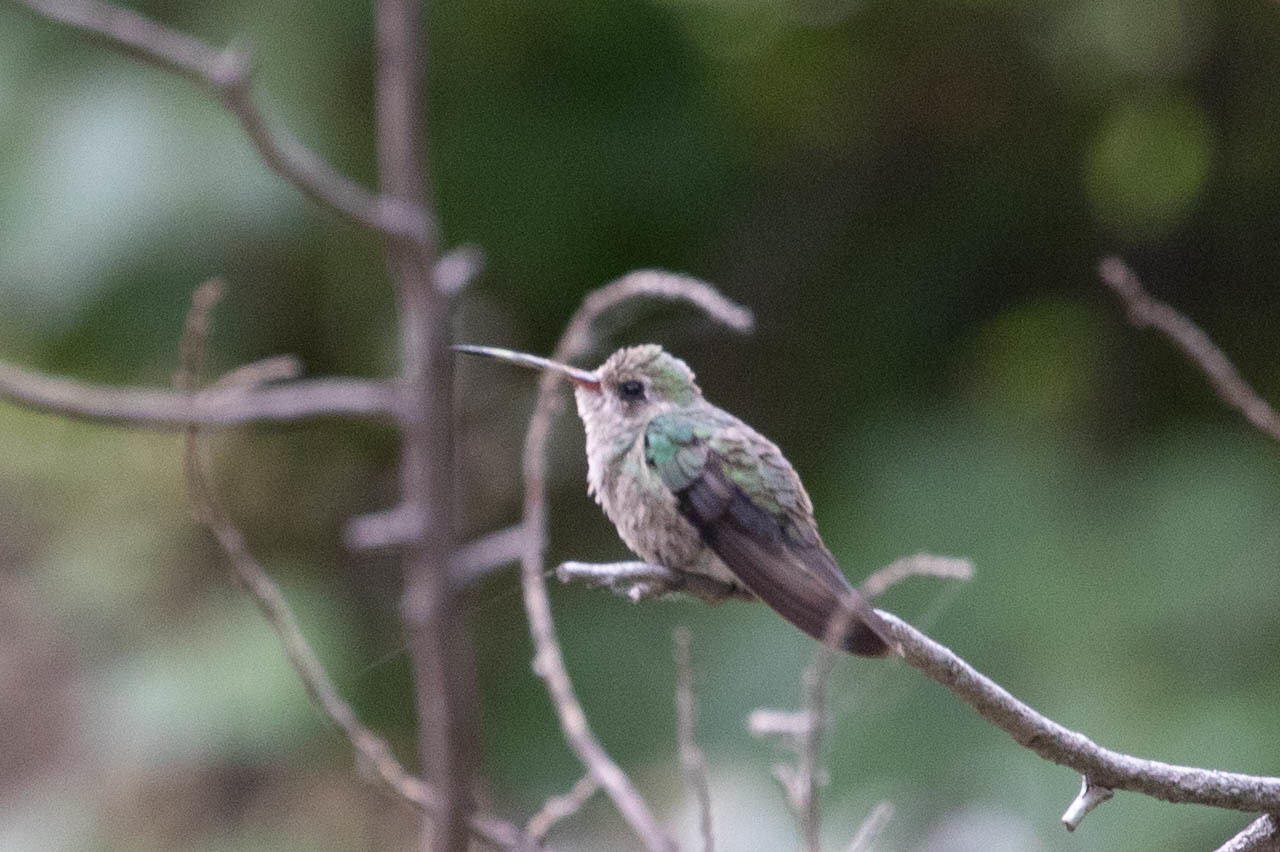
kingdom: Animalia
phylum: Chordata
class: Aves
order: Apodiformes
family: Trochilidae
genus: Cynanthus
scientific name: Cynanthus latirostris
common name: Broad-billed hummingbird
